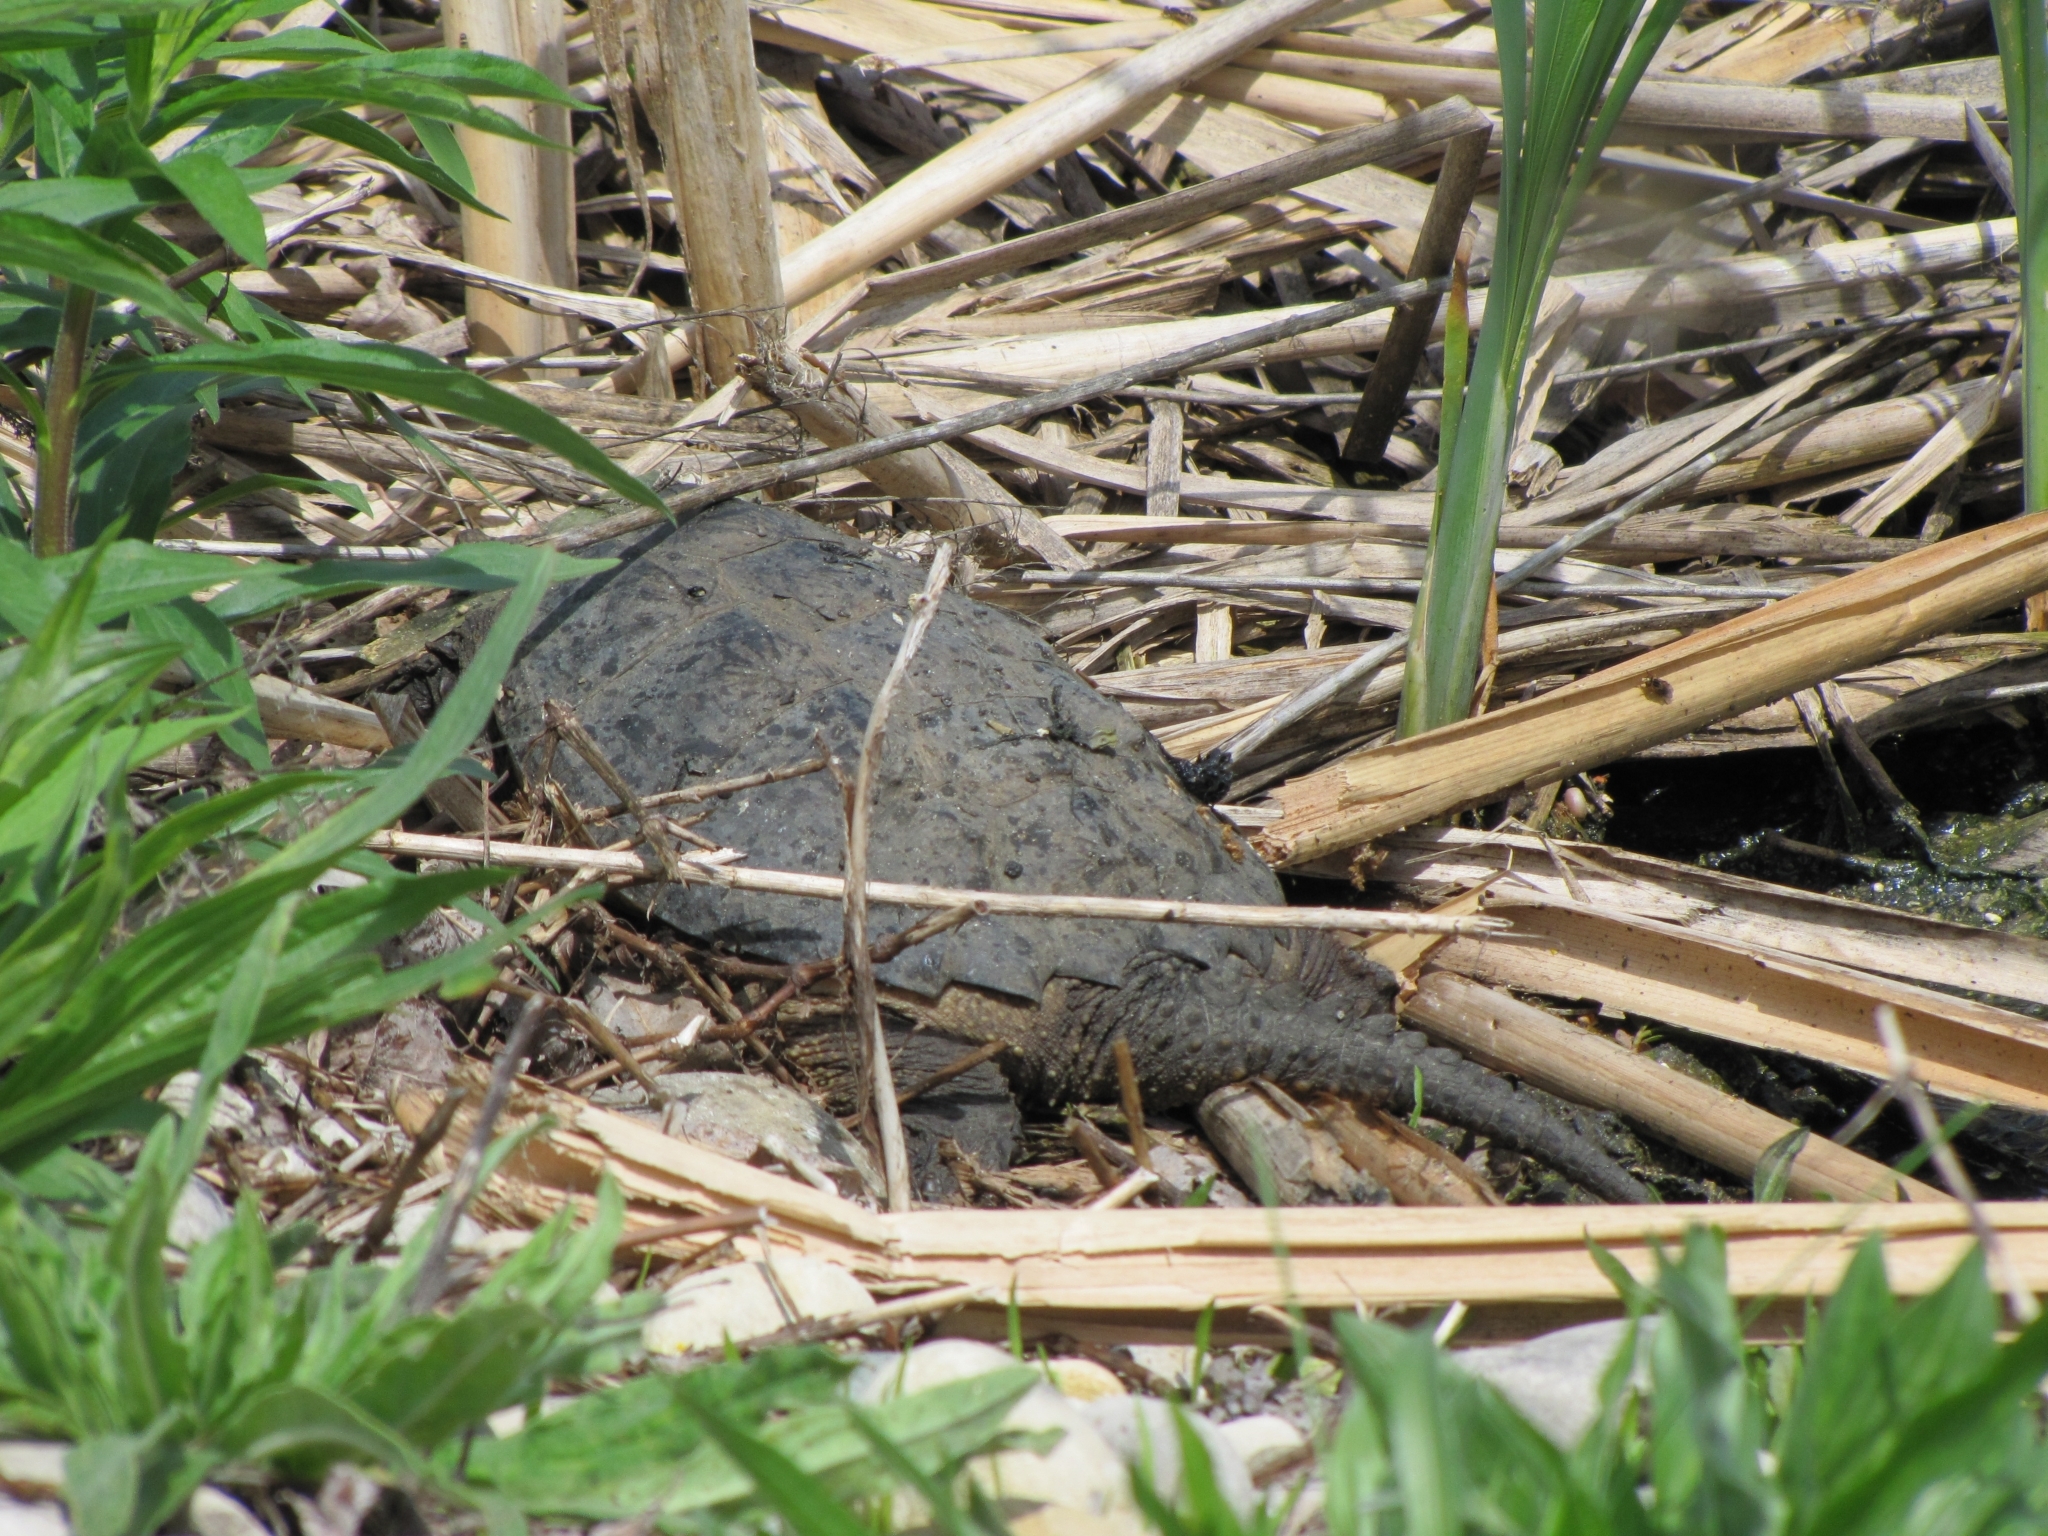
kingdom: Animalia
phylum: Chordata
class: Testudines
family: Chelydridae
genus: Chelydra
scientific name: Chelydra serpentina
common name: Common snapping turtle
